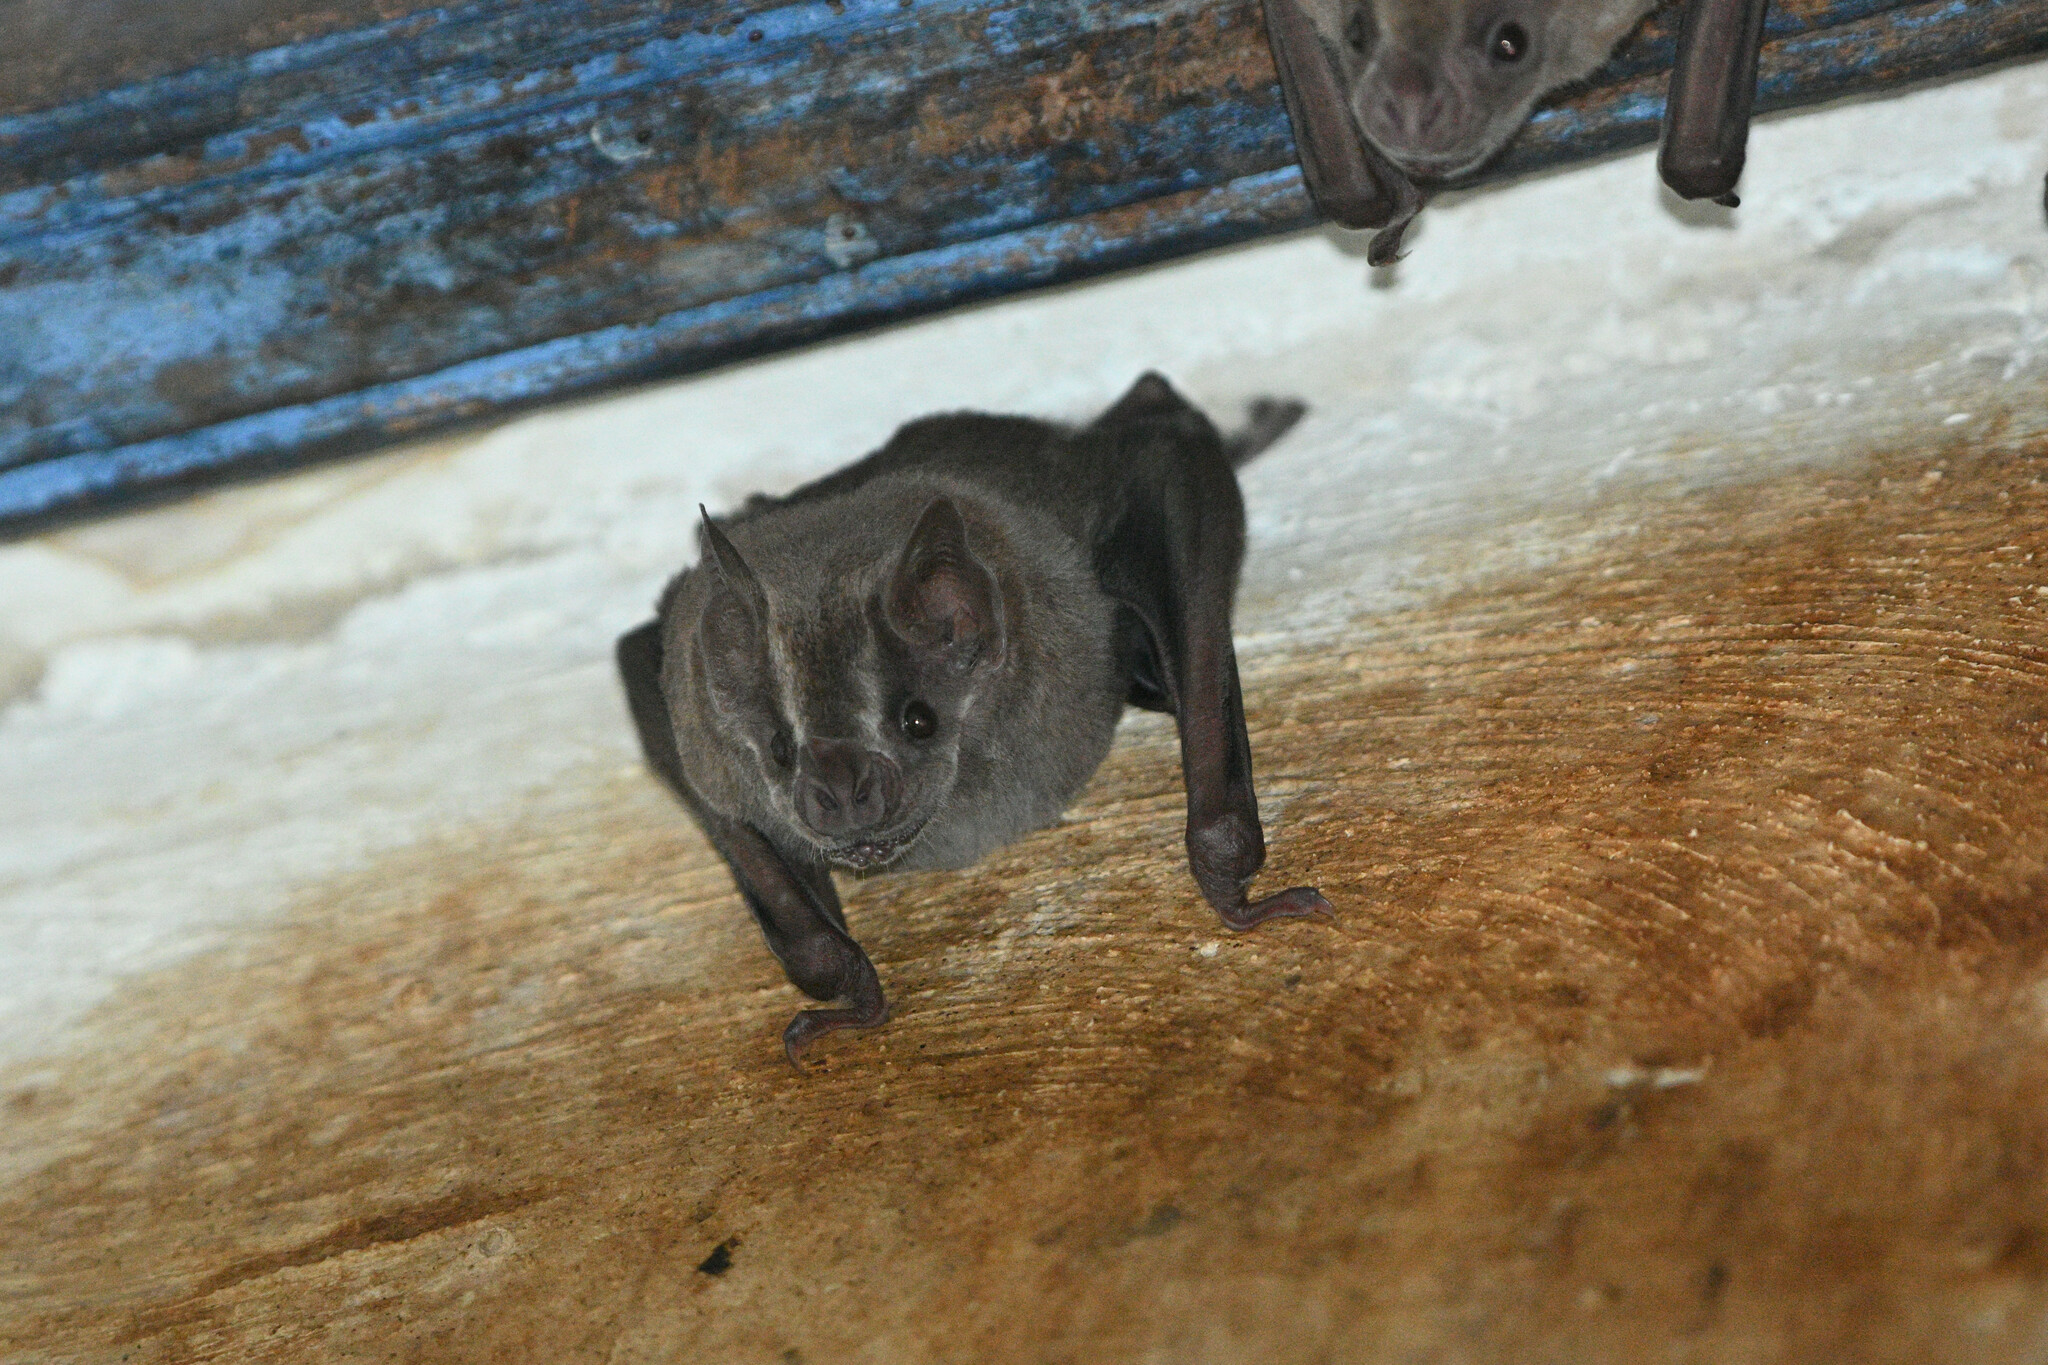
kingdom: Animalia
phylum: Chordata
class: Mammalia
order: Chiroptera
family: Phyllostomidae
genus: Artibeus
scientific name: Artibeus jamaicensis
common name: Jamaican fruit-eating bat
